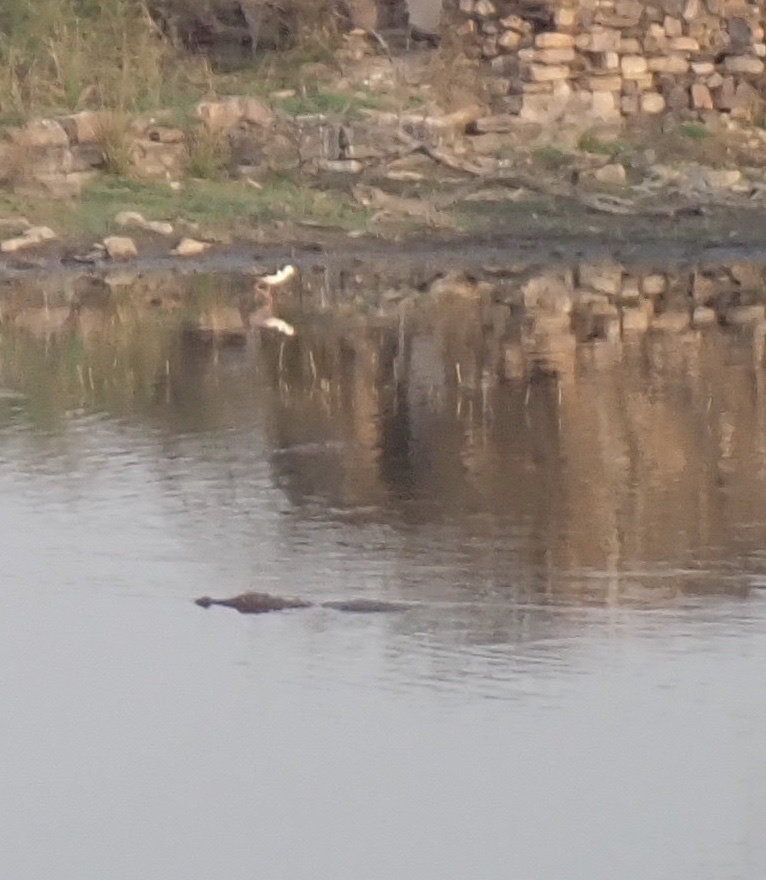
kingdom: Animalia
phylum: Chordata
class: Crocodylia
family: Crocodylidae
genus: Crocodylus
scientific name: Crocodylus palustris
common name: Mugger crocodile
